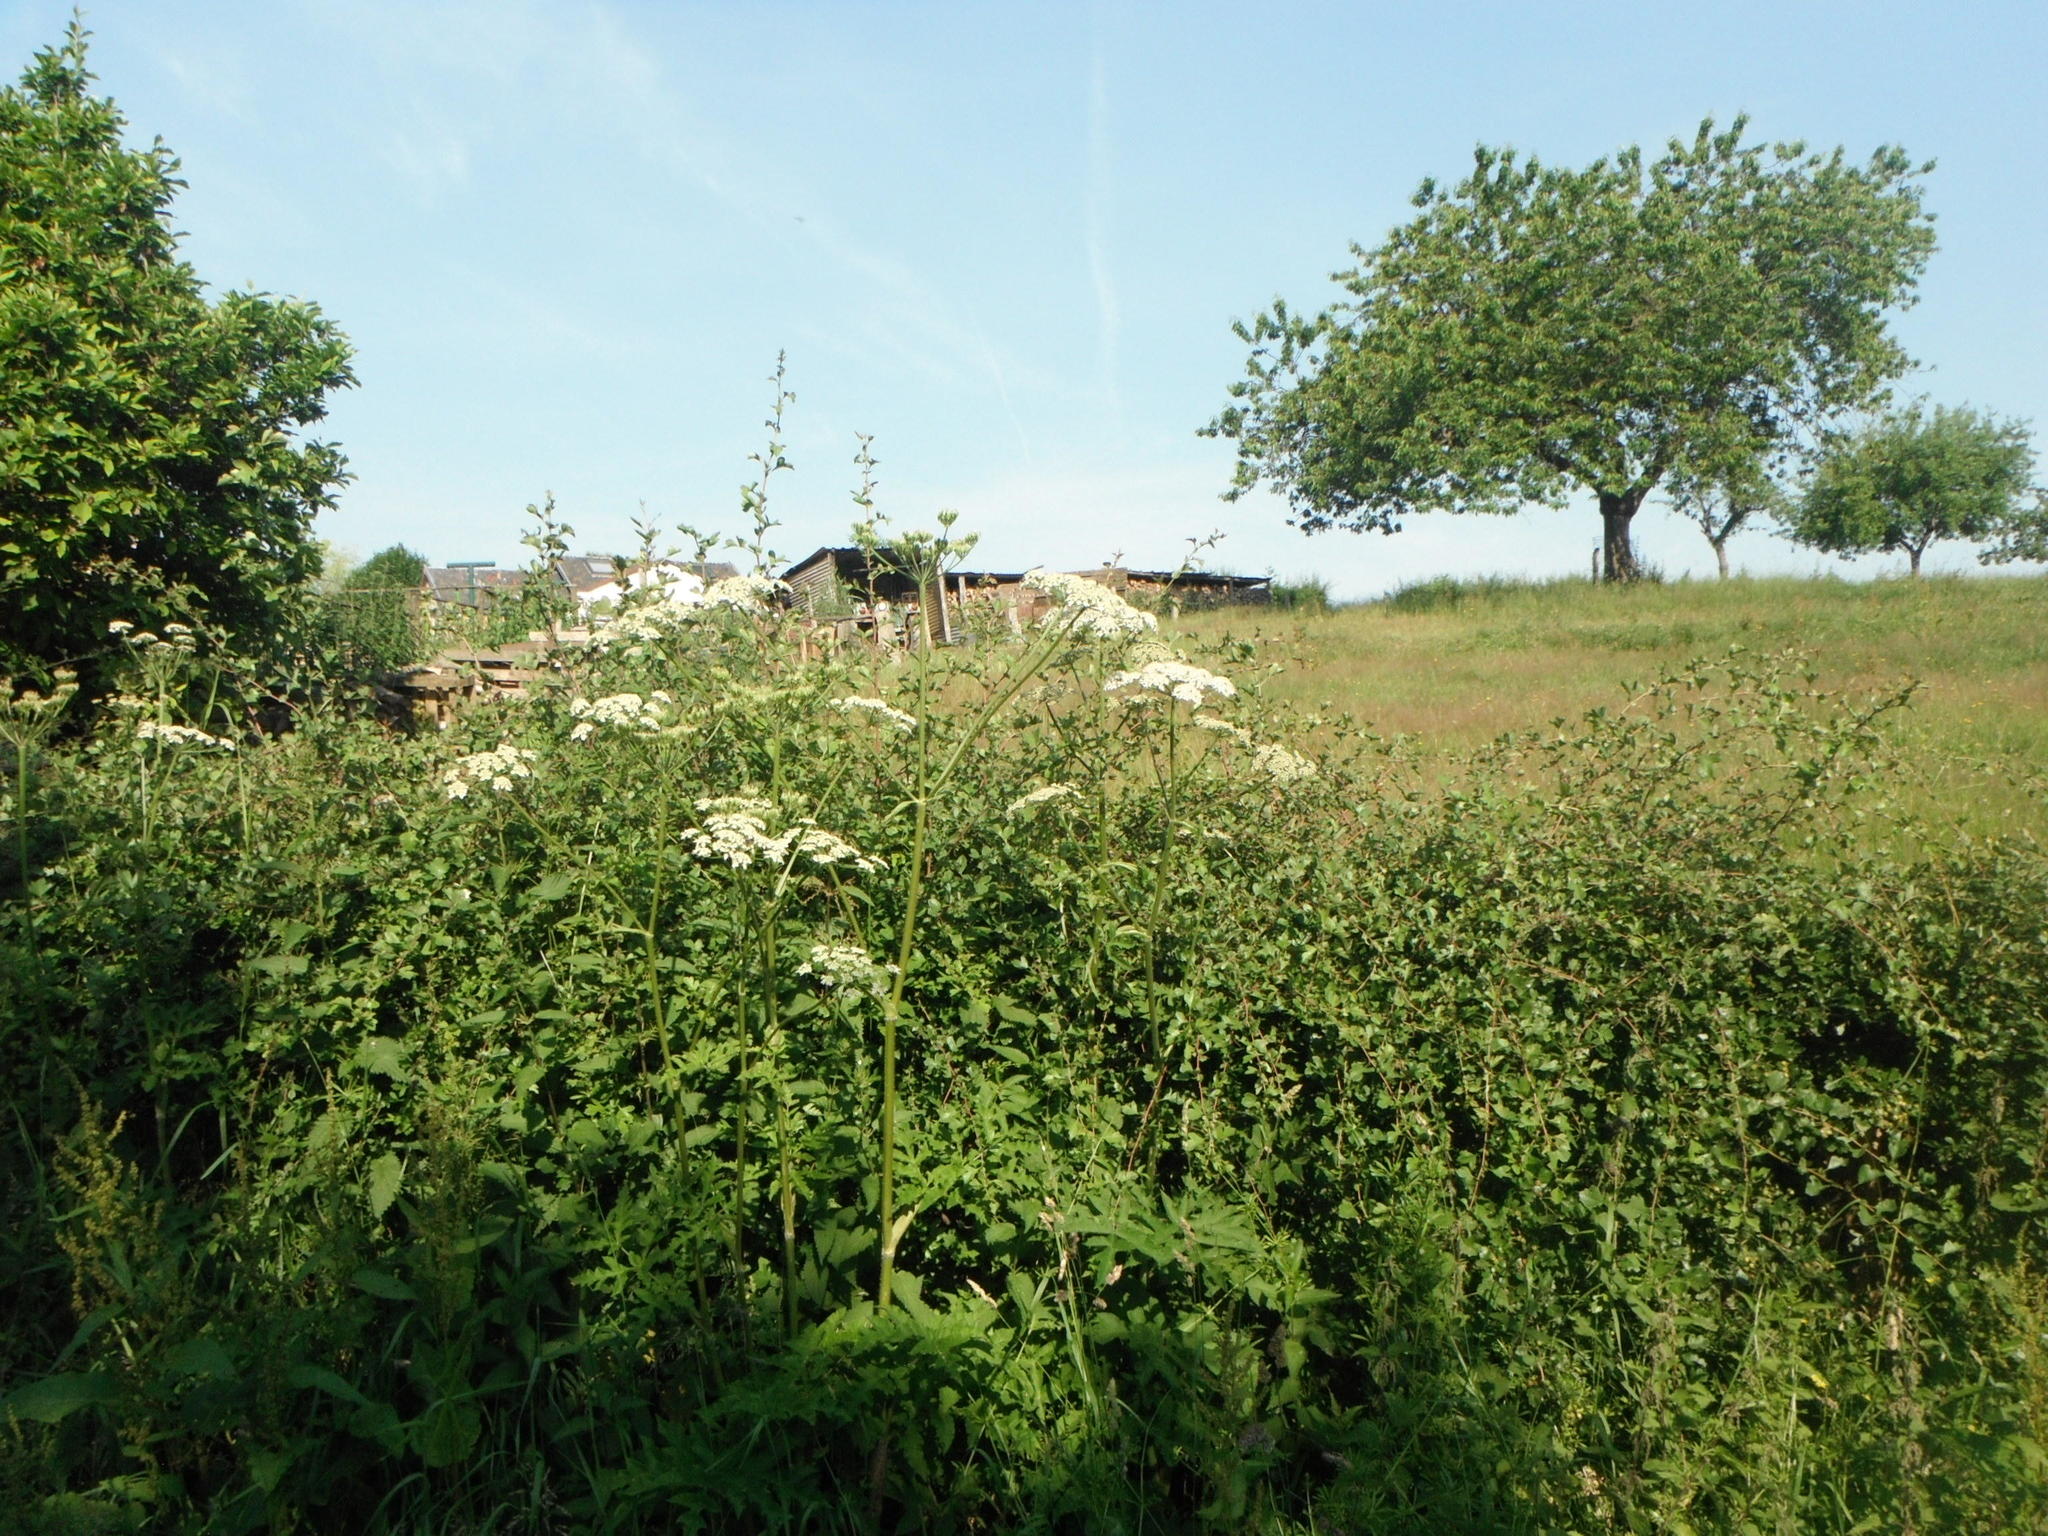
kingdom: Plantae
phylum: Tracheophyta
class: Magnoliopsida
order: Apiales
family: Apiaceae
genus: Heracleum
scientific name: Heracleum sphondylium
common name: Hogweed
